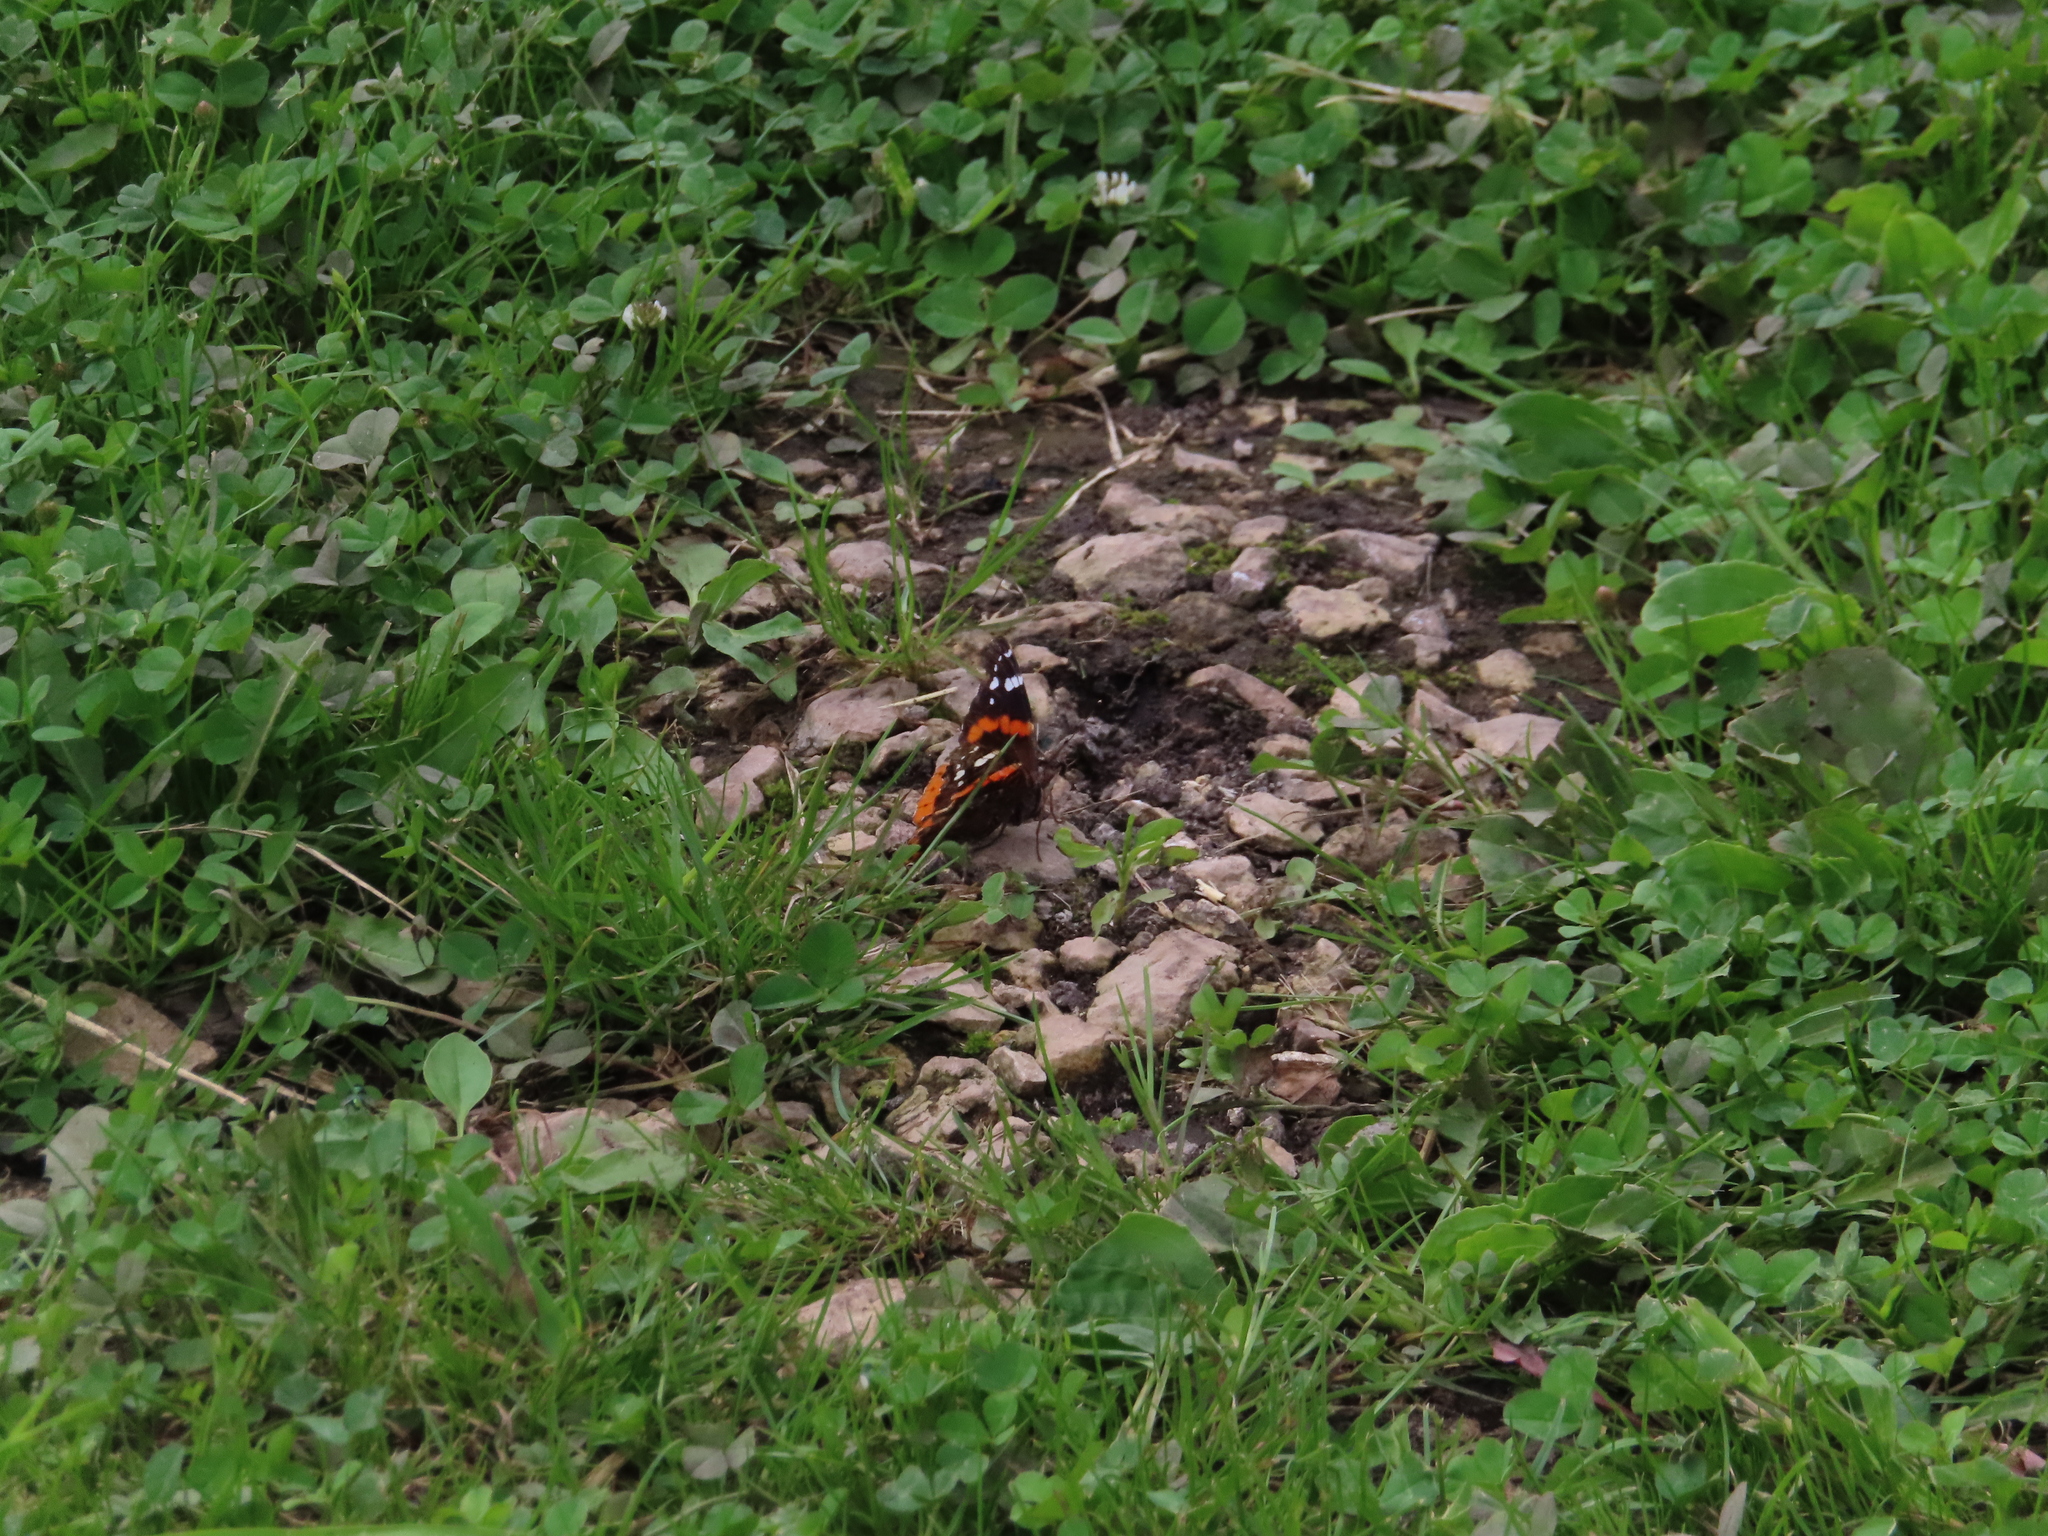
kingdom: Animalia
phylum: Arthropoda
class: Insecta
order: Lepidoptera
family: Nymphalidae
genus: Vanessa
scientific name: Vanessa atalanta
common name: Red admiral
